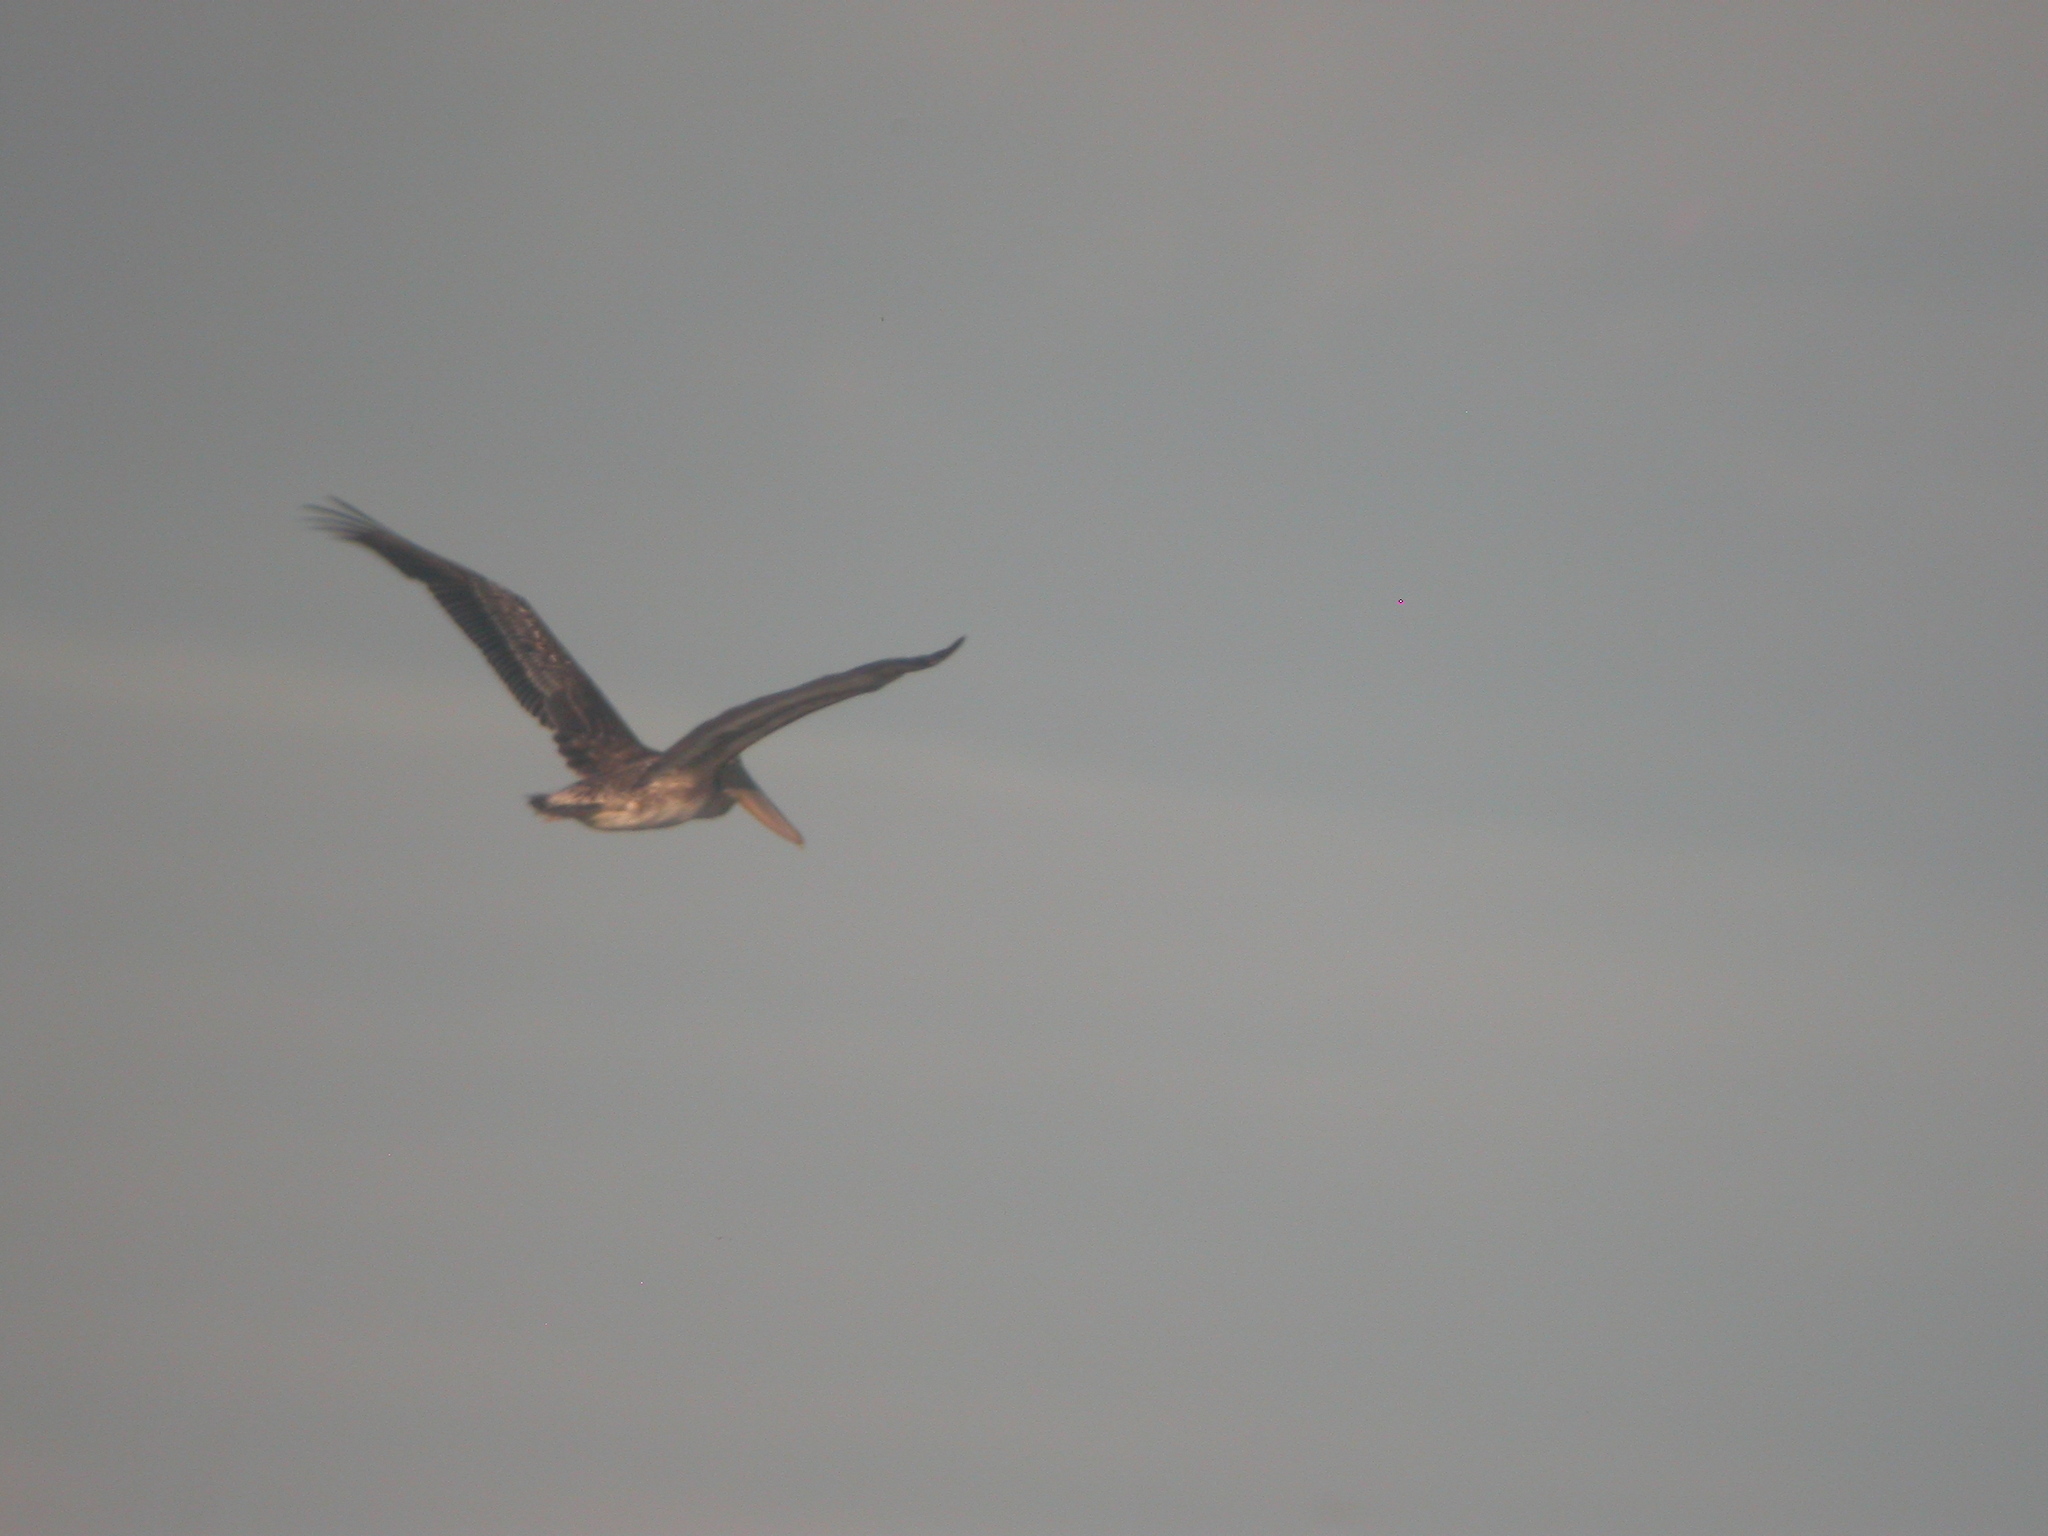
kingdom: Animalia
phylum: Chordata
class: Aves
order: Pelecaniformes
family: Pelecanidae
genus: Pelecanus
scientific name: Pelecanus occidentalis
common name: Brown pelican
